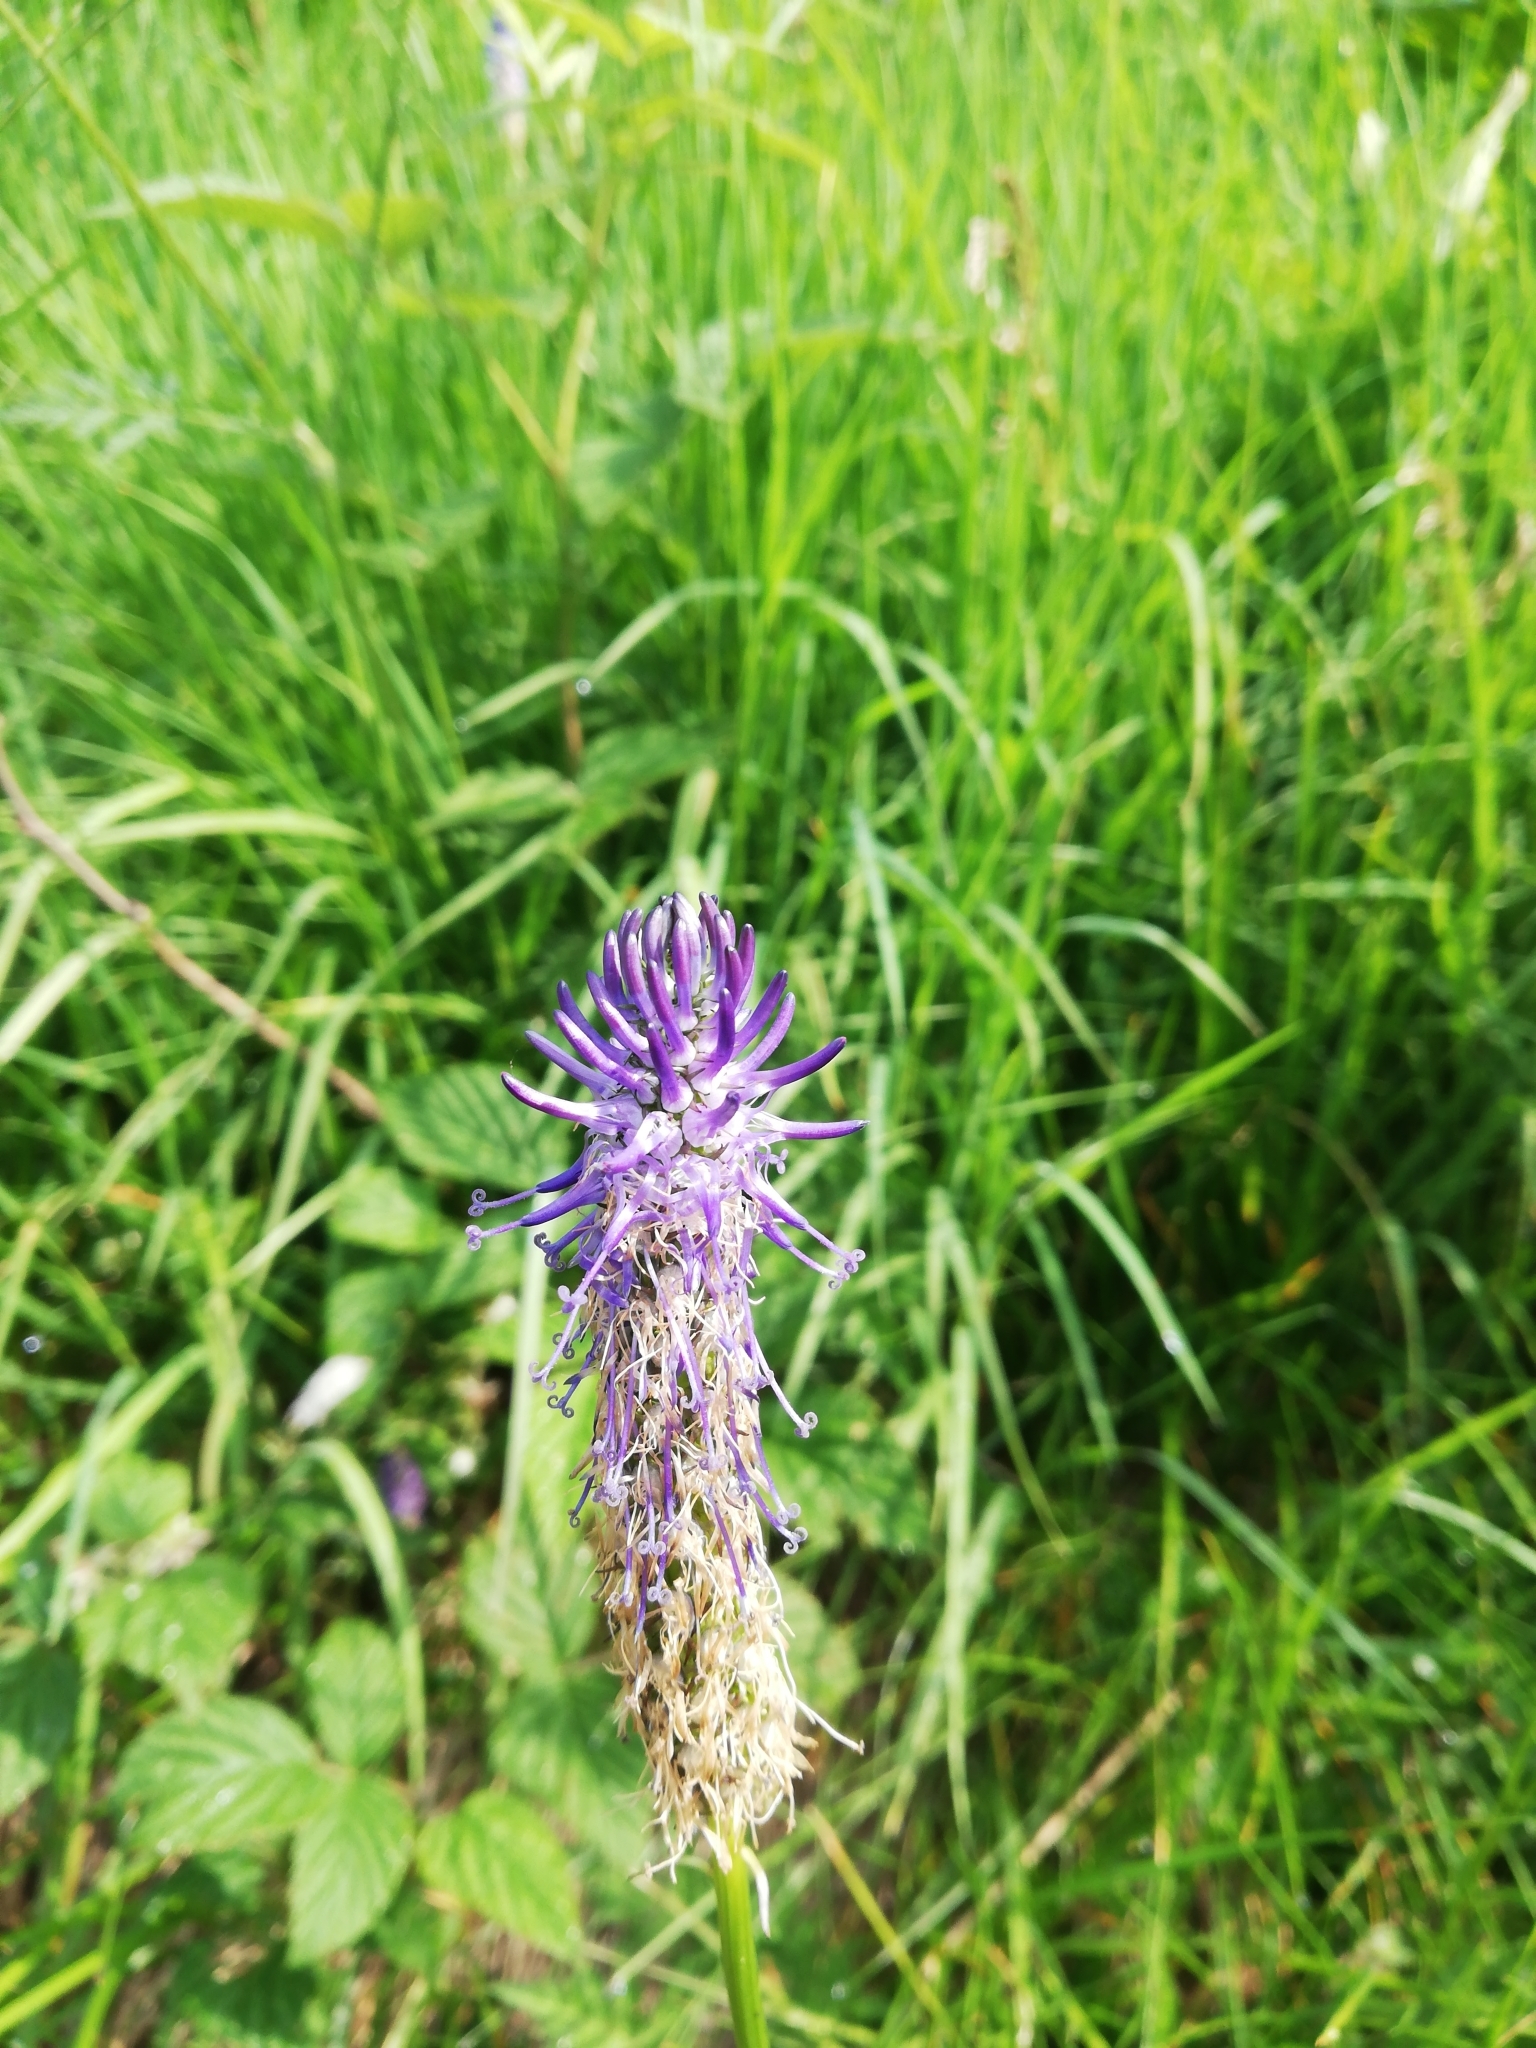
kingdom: Plantae
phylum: Tracheophyta
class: Magnoliopsida
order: Asterales
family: Campanulaceae
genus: Phyteuma
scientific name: Phyteuma betonicifolium
